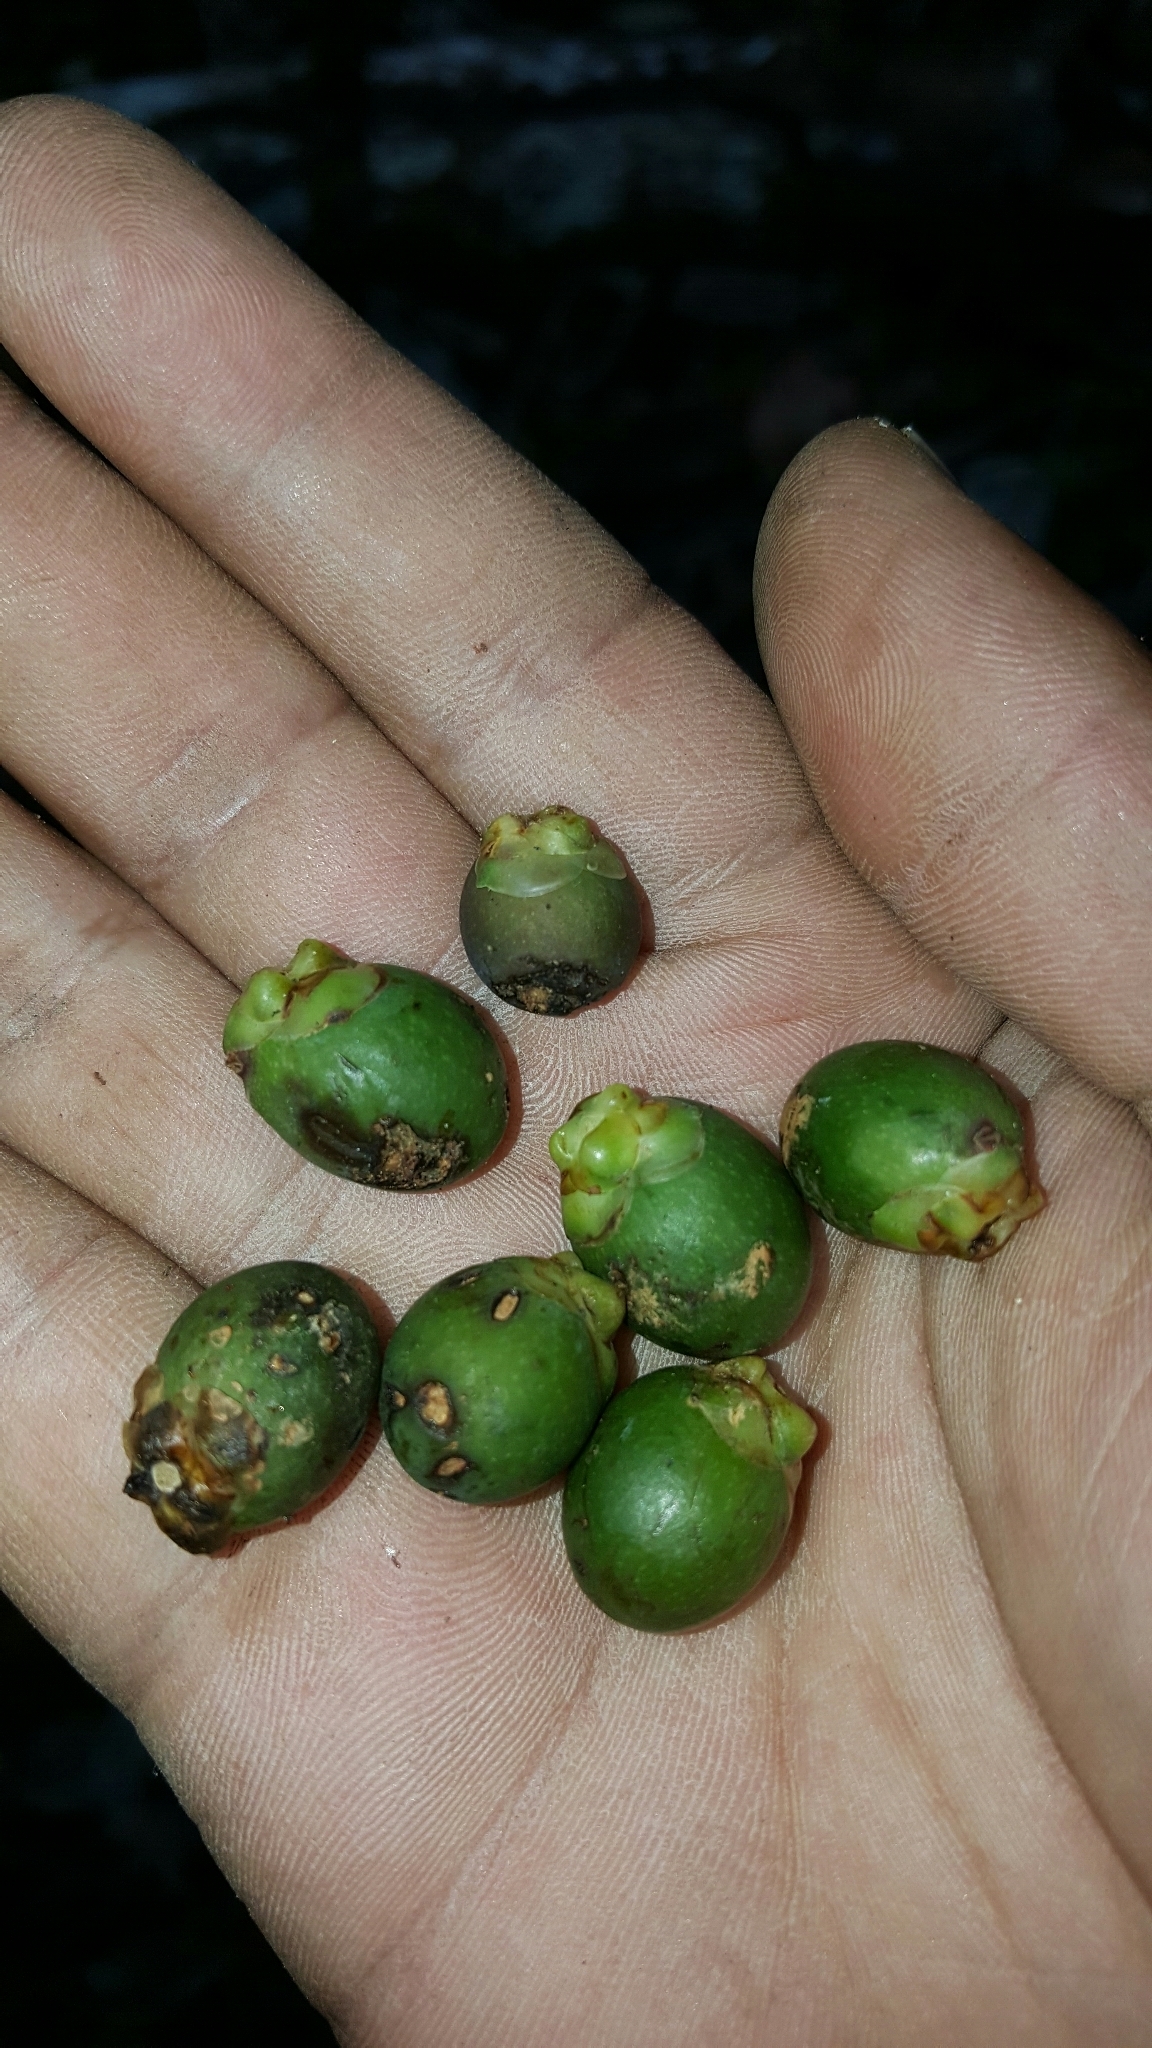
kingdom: Plantae
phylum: Tracheophyta
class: Liliopsida
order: Arecales
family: Arecaceae
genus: Dypsis
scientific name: Dypsis saintelucei
